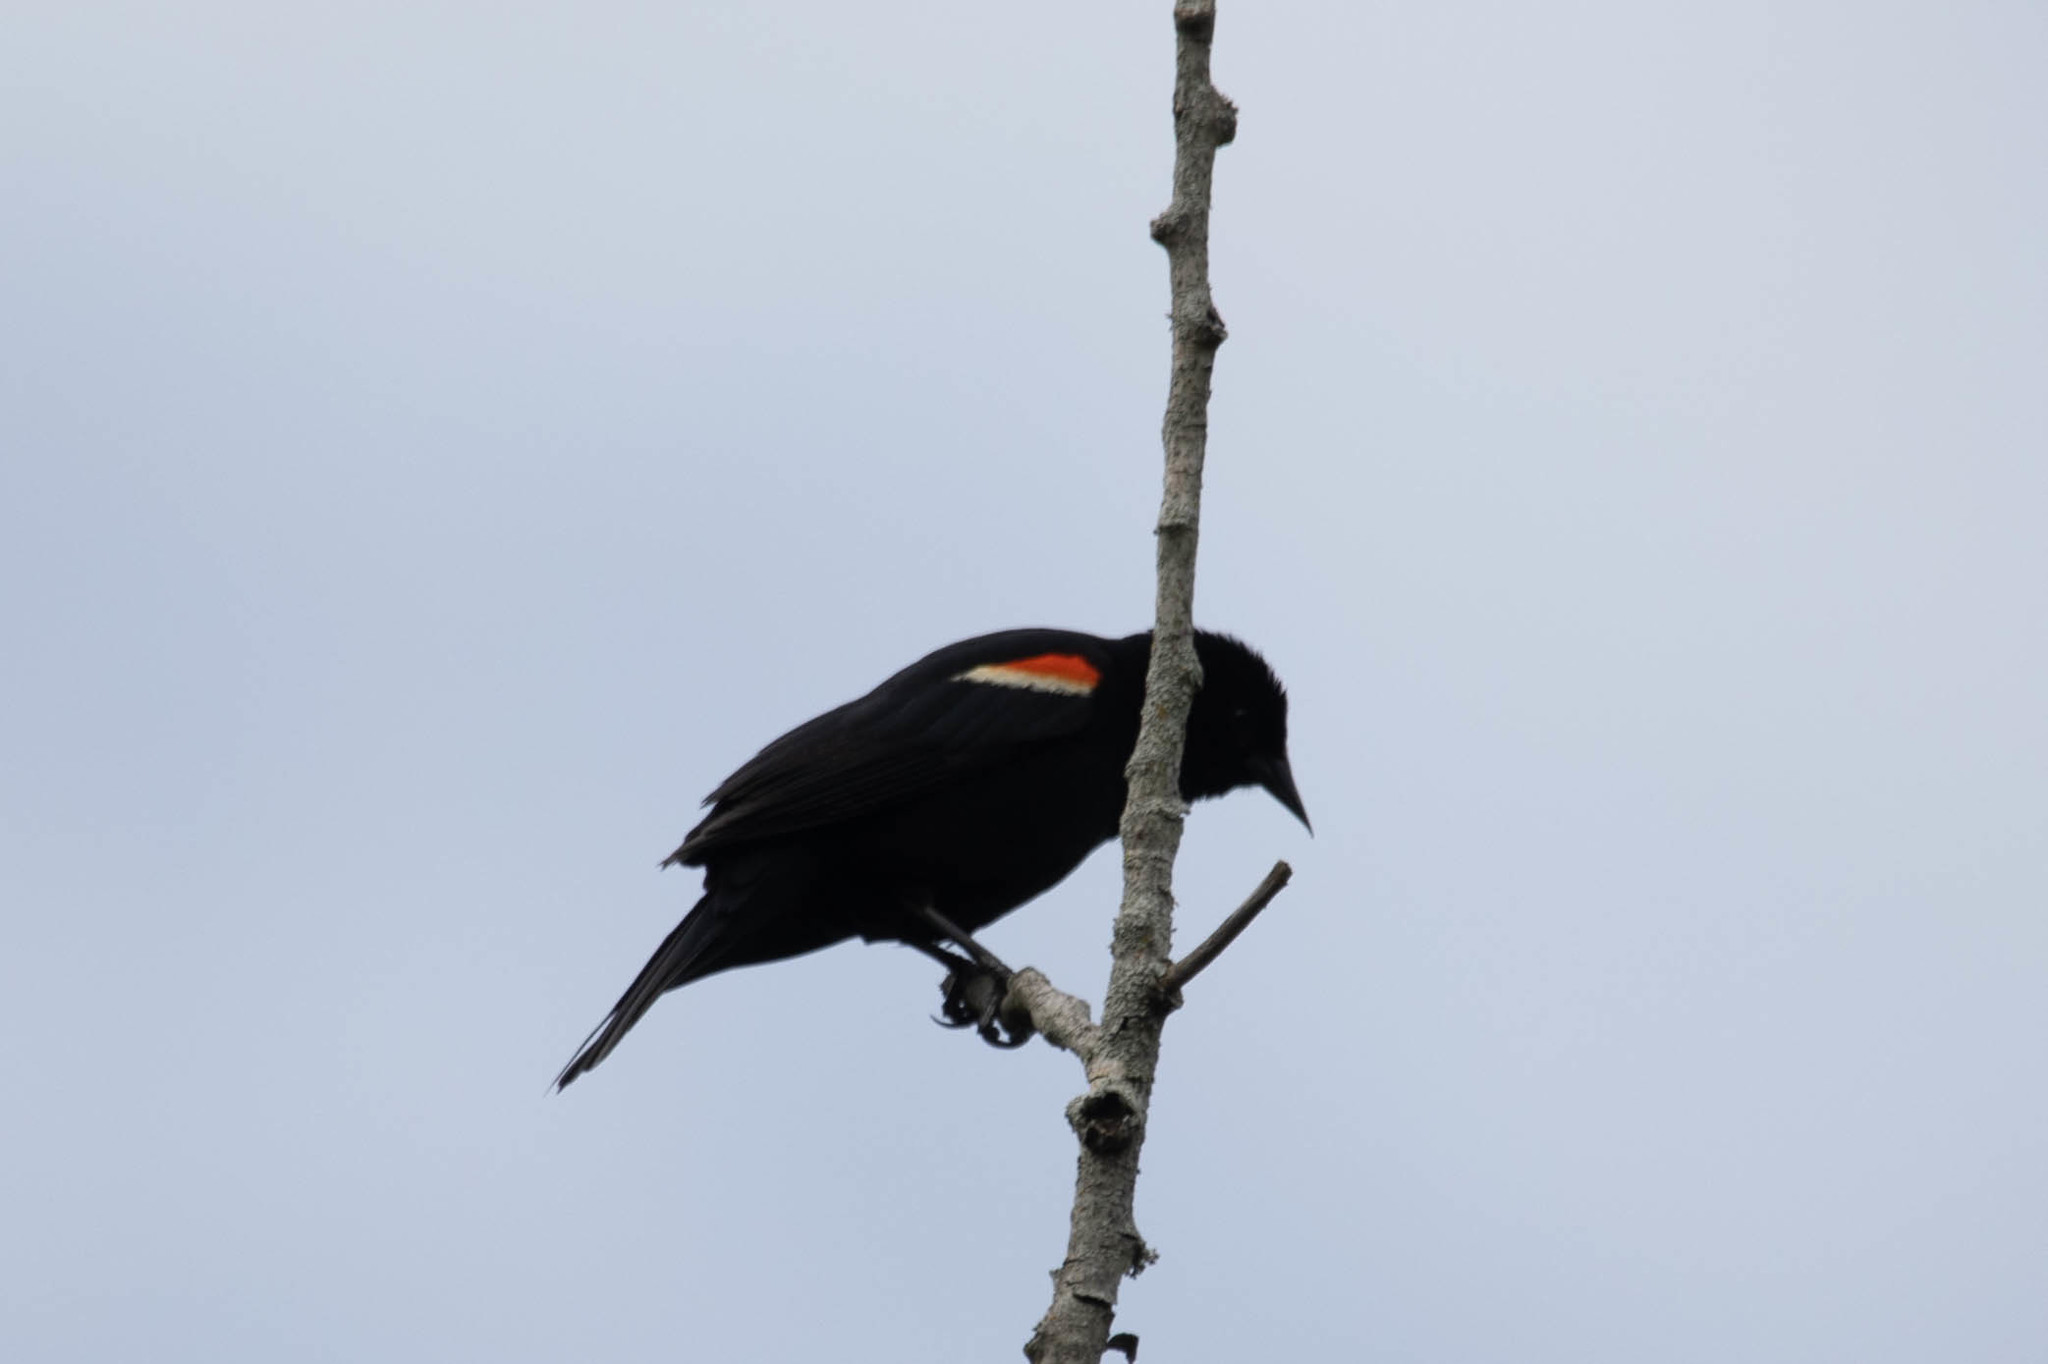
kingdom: Animalia
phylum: Chordata
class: Aves
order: Passeriformes
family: Icteridae
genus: Agelaius
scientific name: Agelaius phoeniceus
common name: Red-winged blackbird
